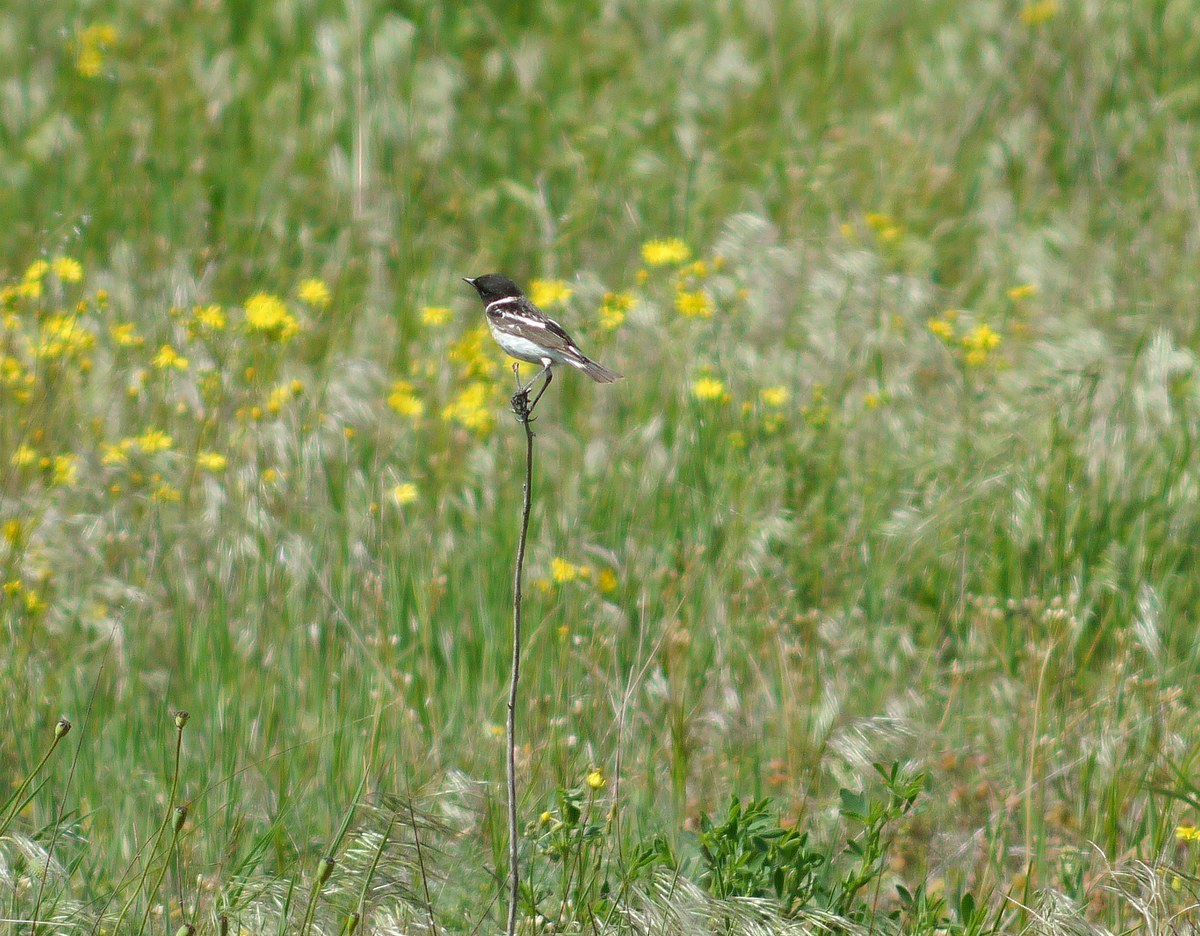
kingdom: Animalia
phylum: Chordata
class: Aves
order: Passeriformes
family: Muscicapidae
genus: Saxicola
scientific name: Saxicola maurus
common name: Siberian stonechat
